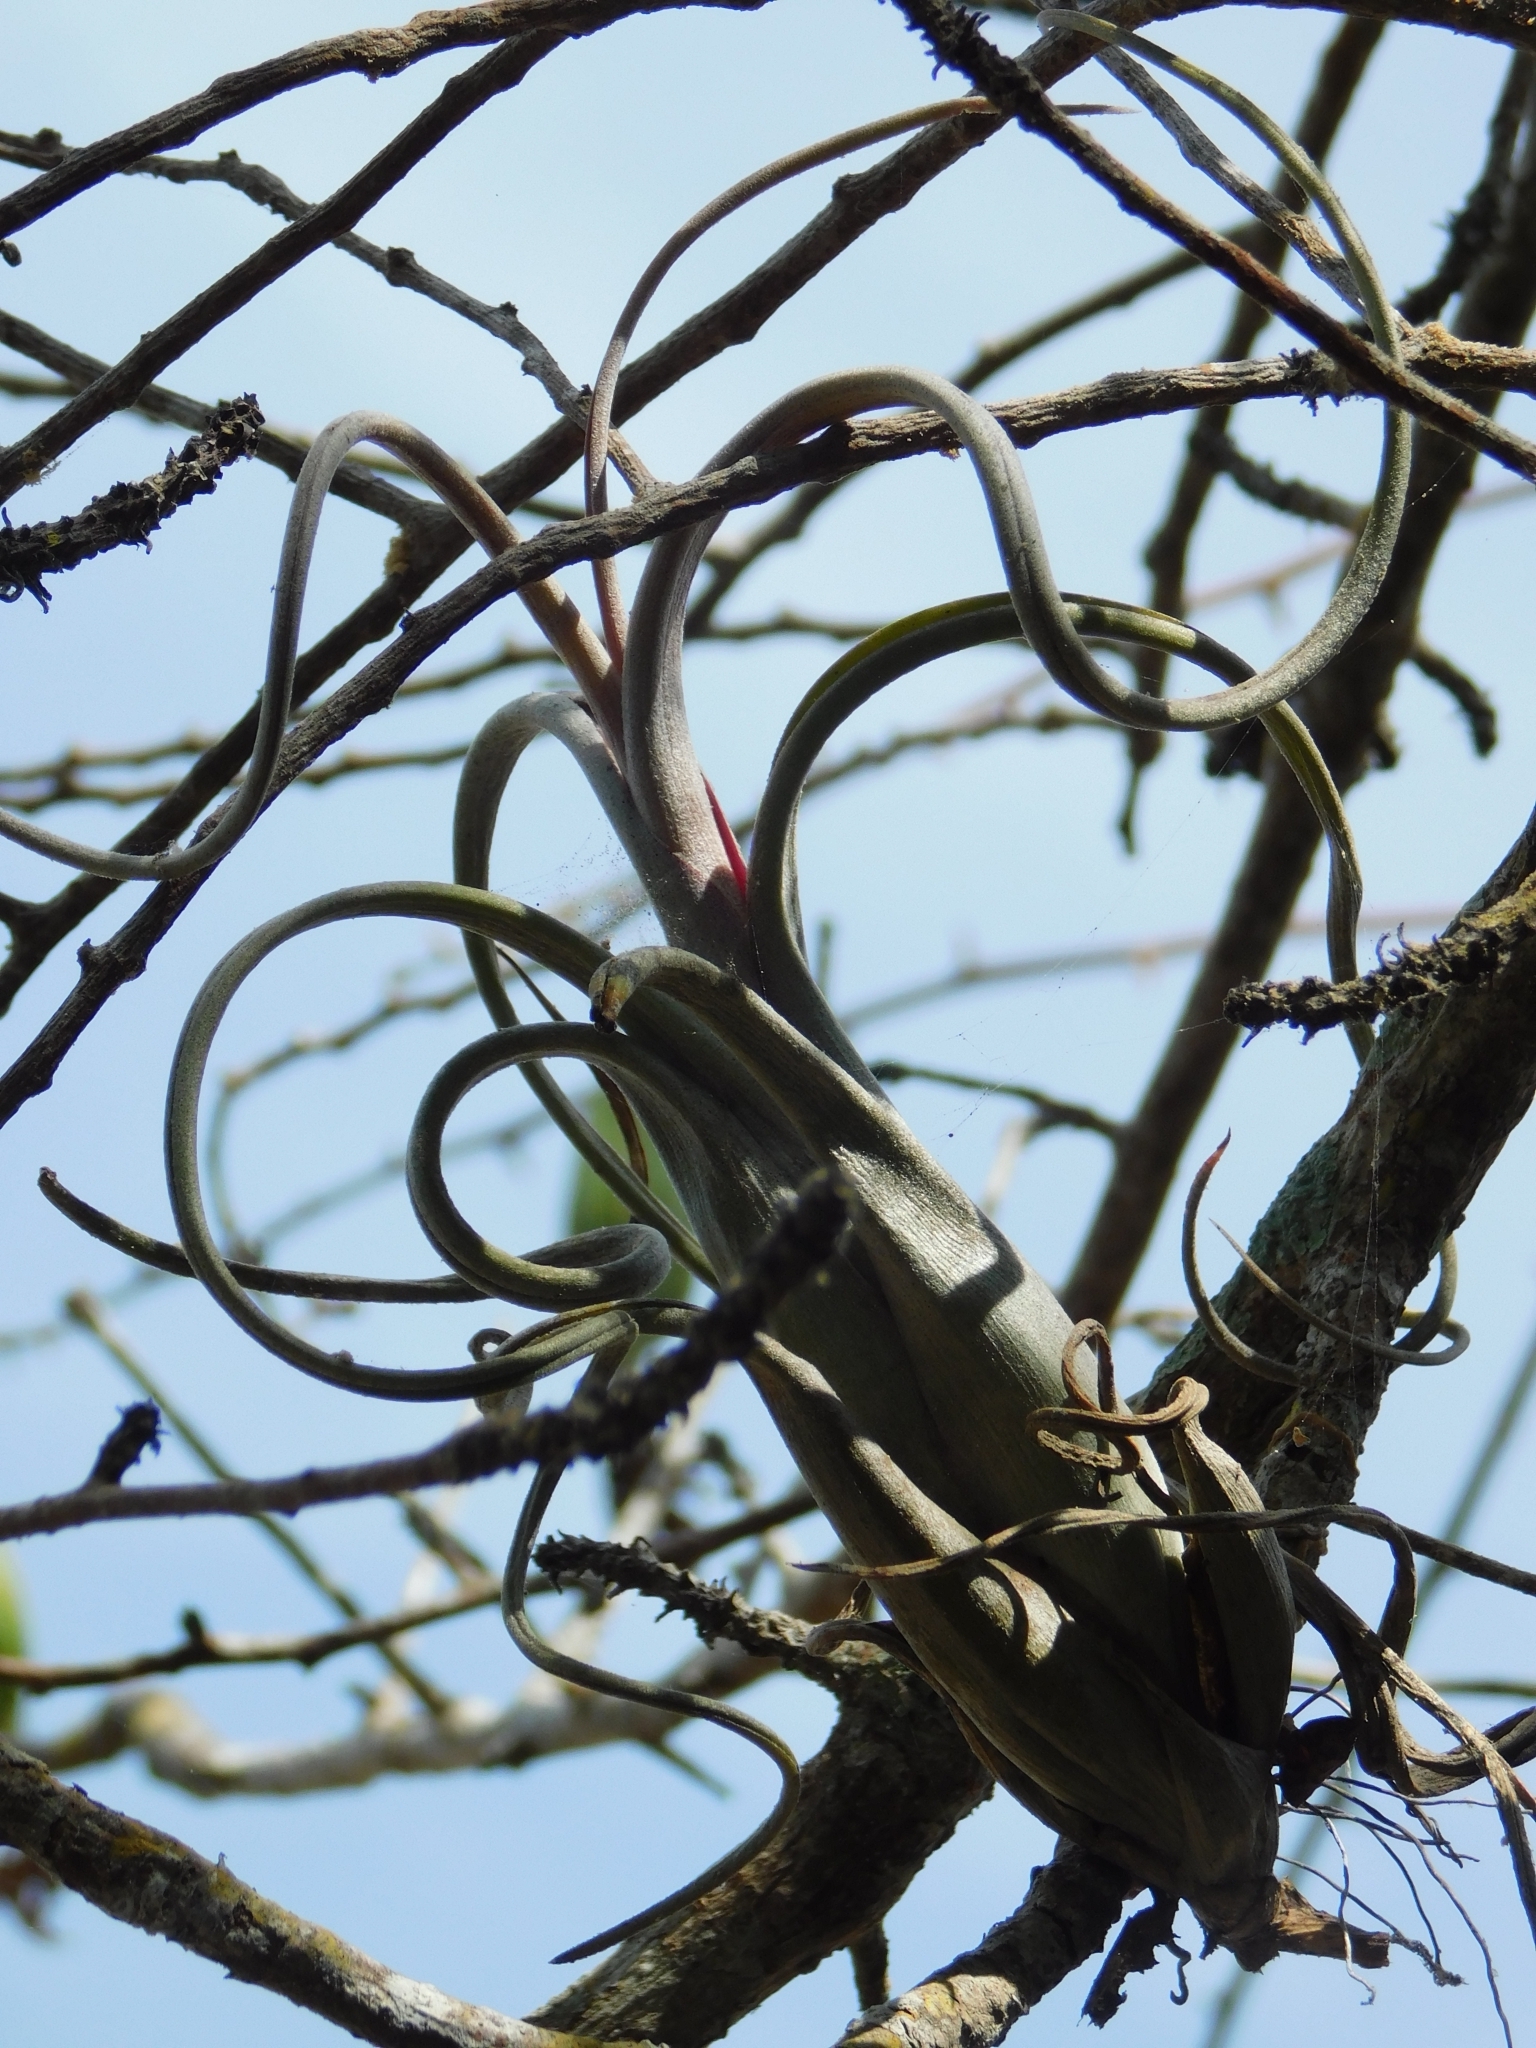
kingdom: Plantae
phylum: Tracheophyta
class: Liliopsida
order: Poales
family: Bromeliaceae
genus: Tillandsia
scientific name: Tillandsia intermedia
